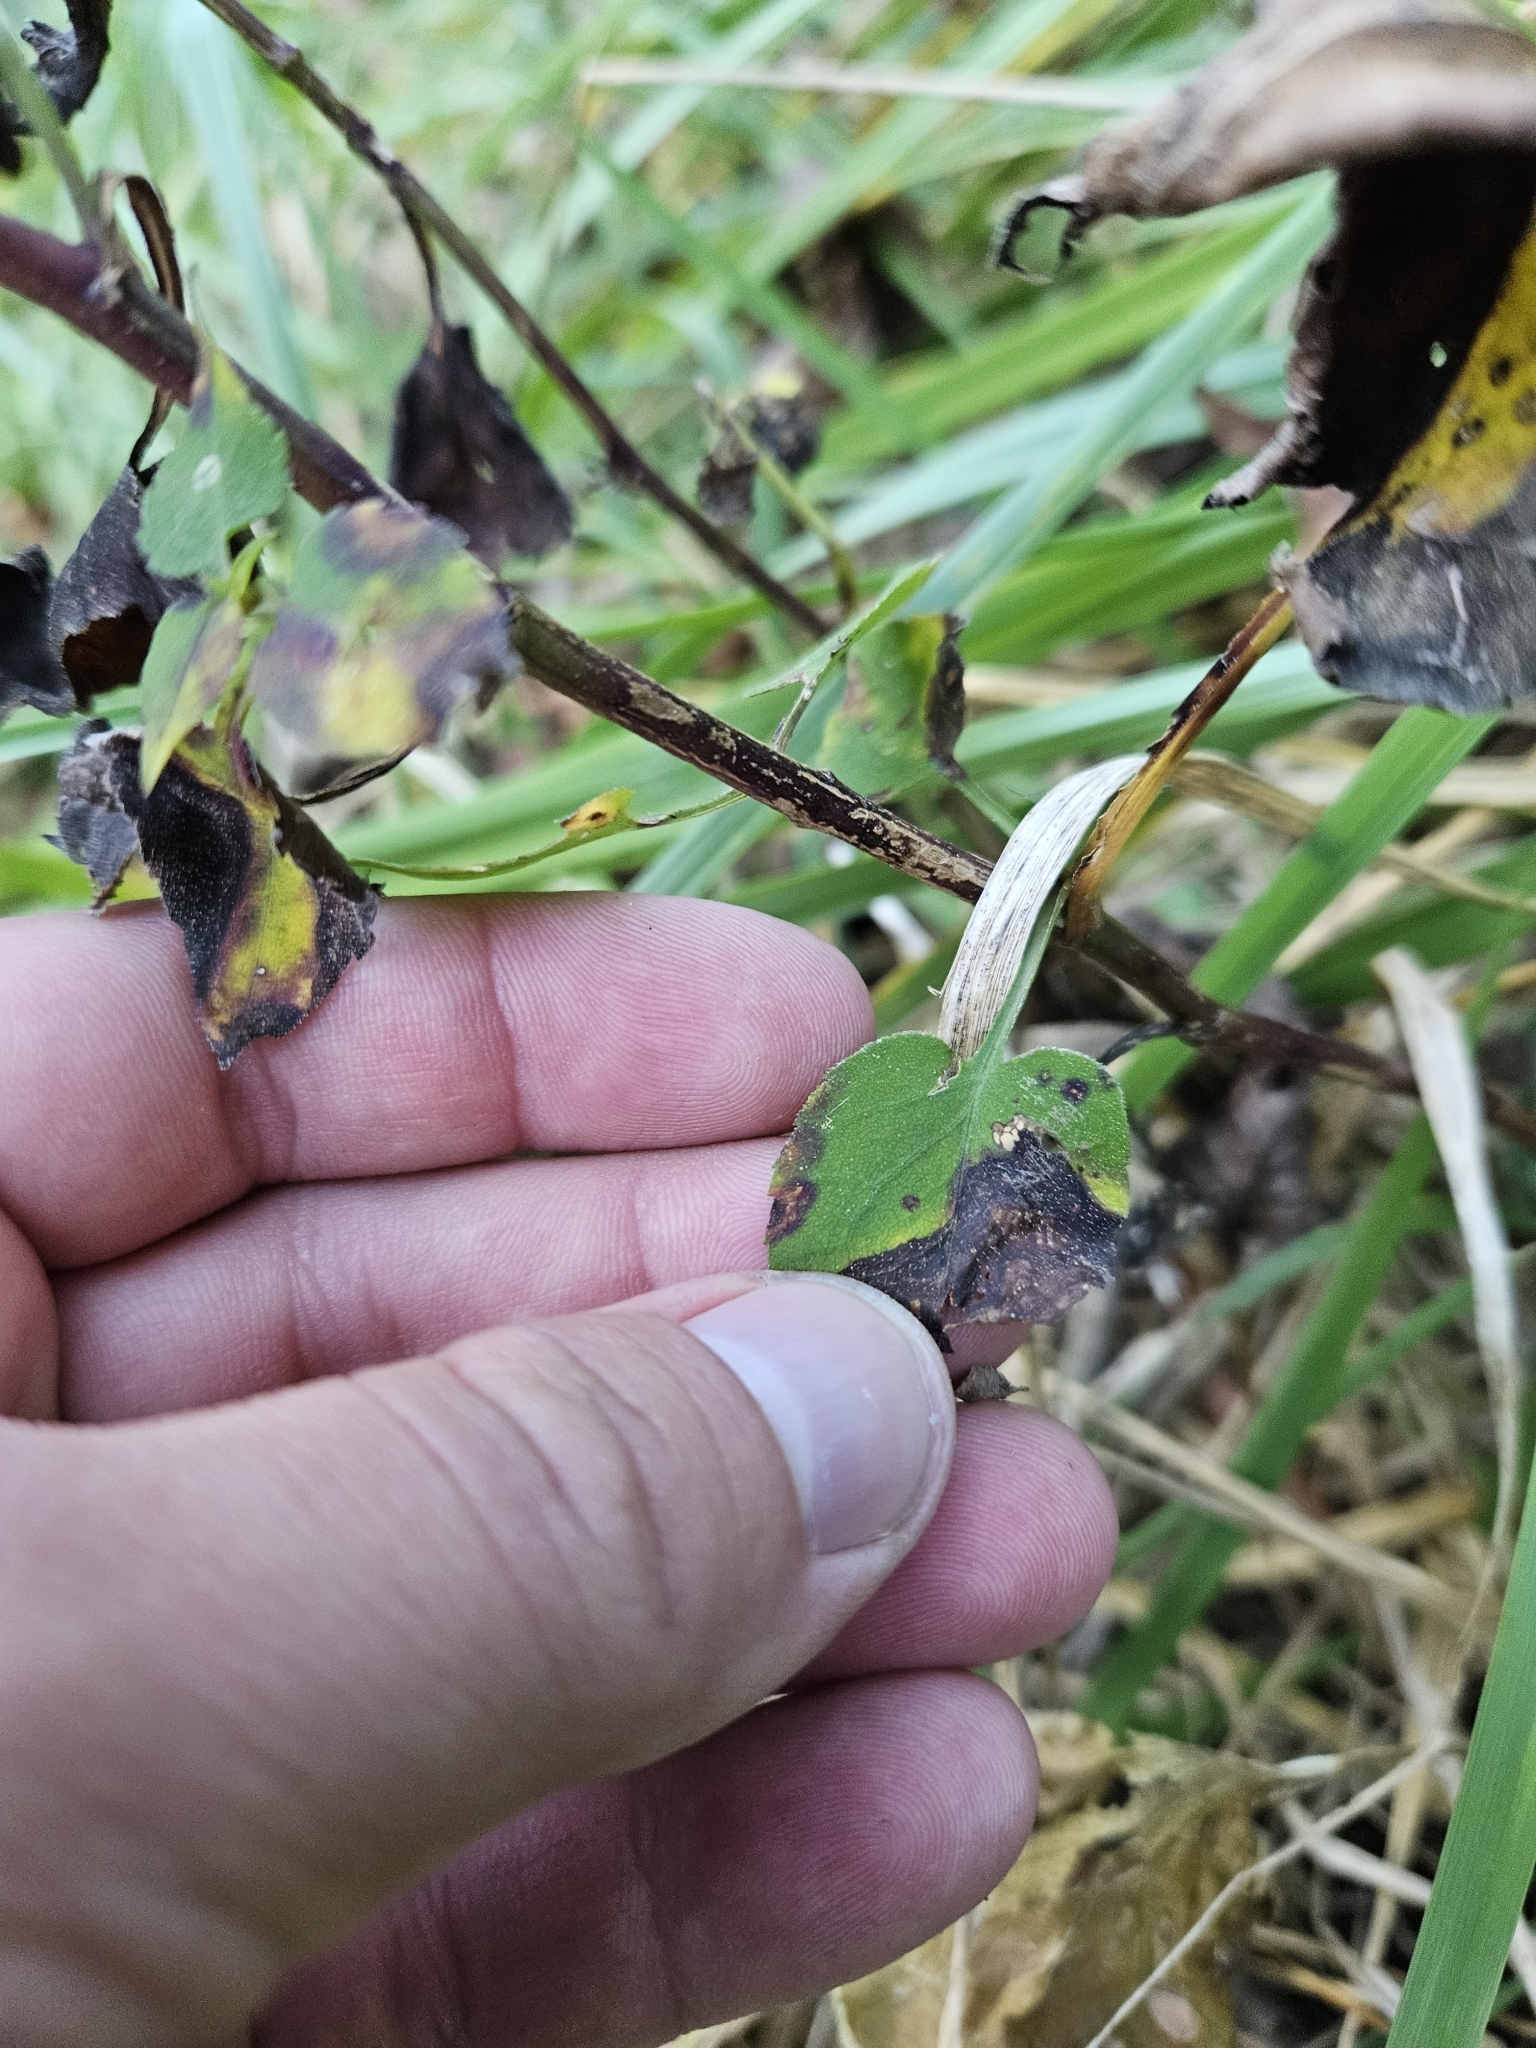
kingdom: Plantae
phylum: Tracheophyta
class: Magnoliopsida
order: Asterales
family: Asteraceae
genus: Symphyotrichum
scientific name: Symphyotrichum cordifolium
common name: Beeweed
